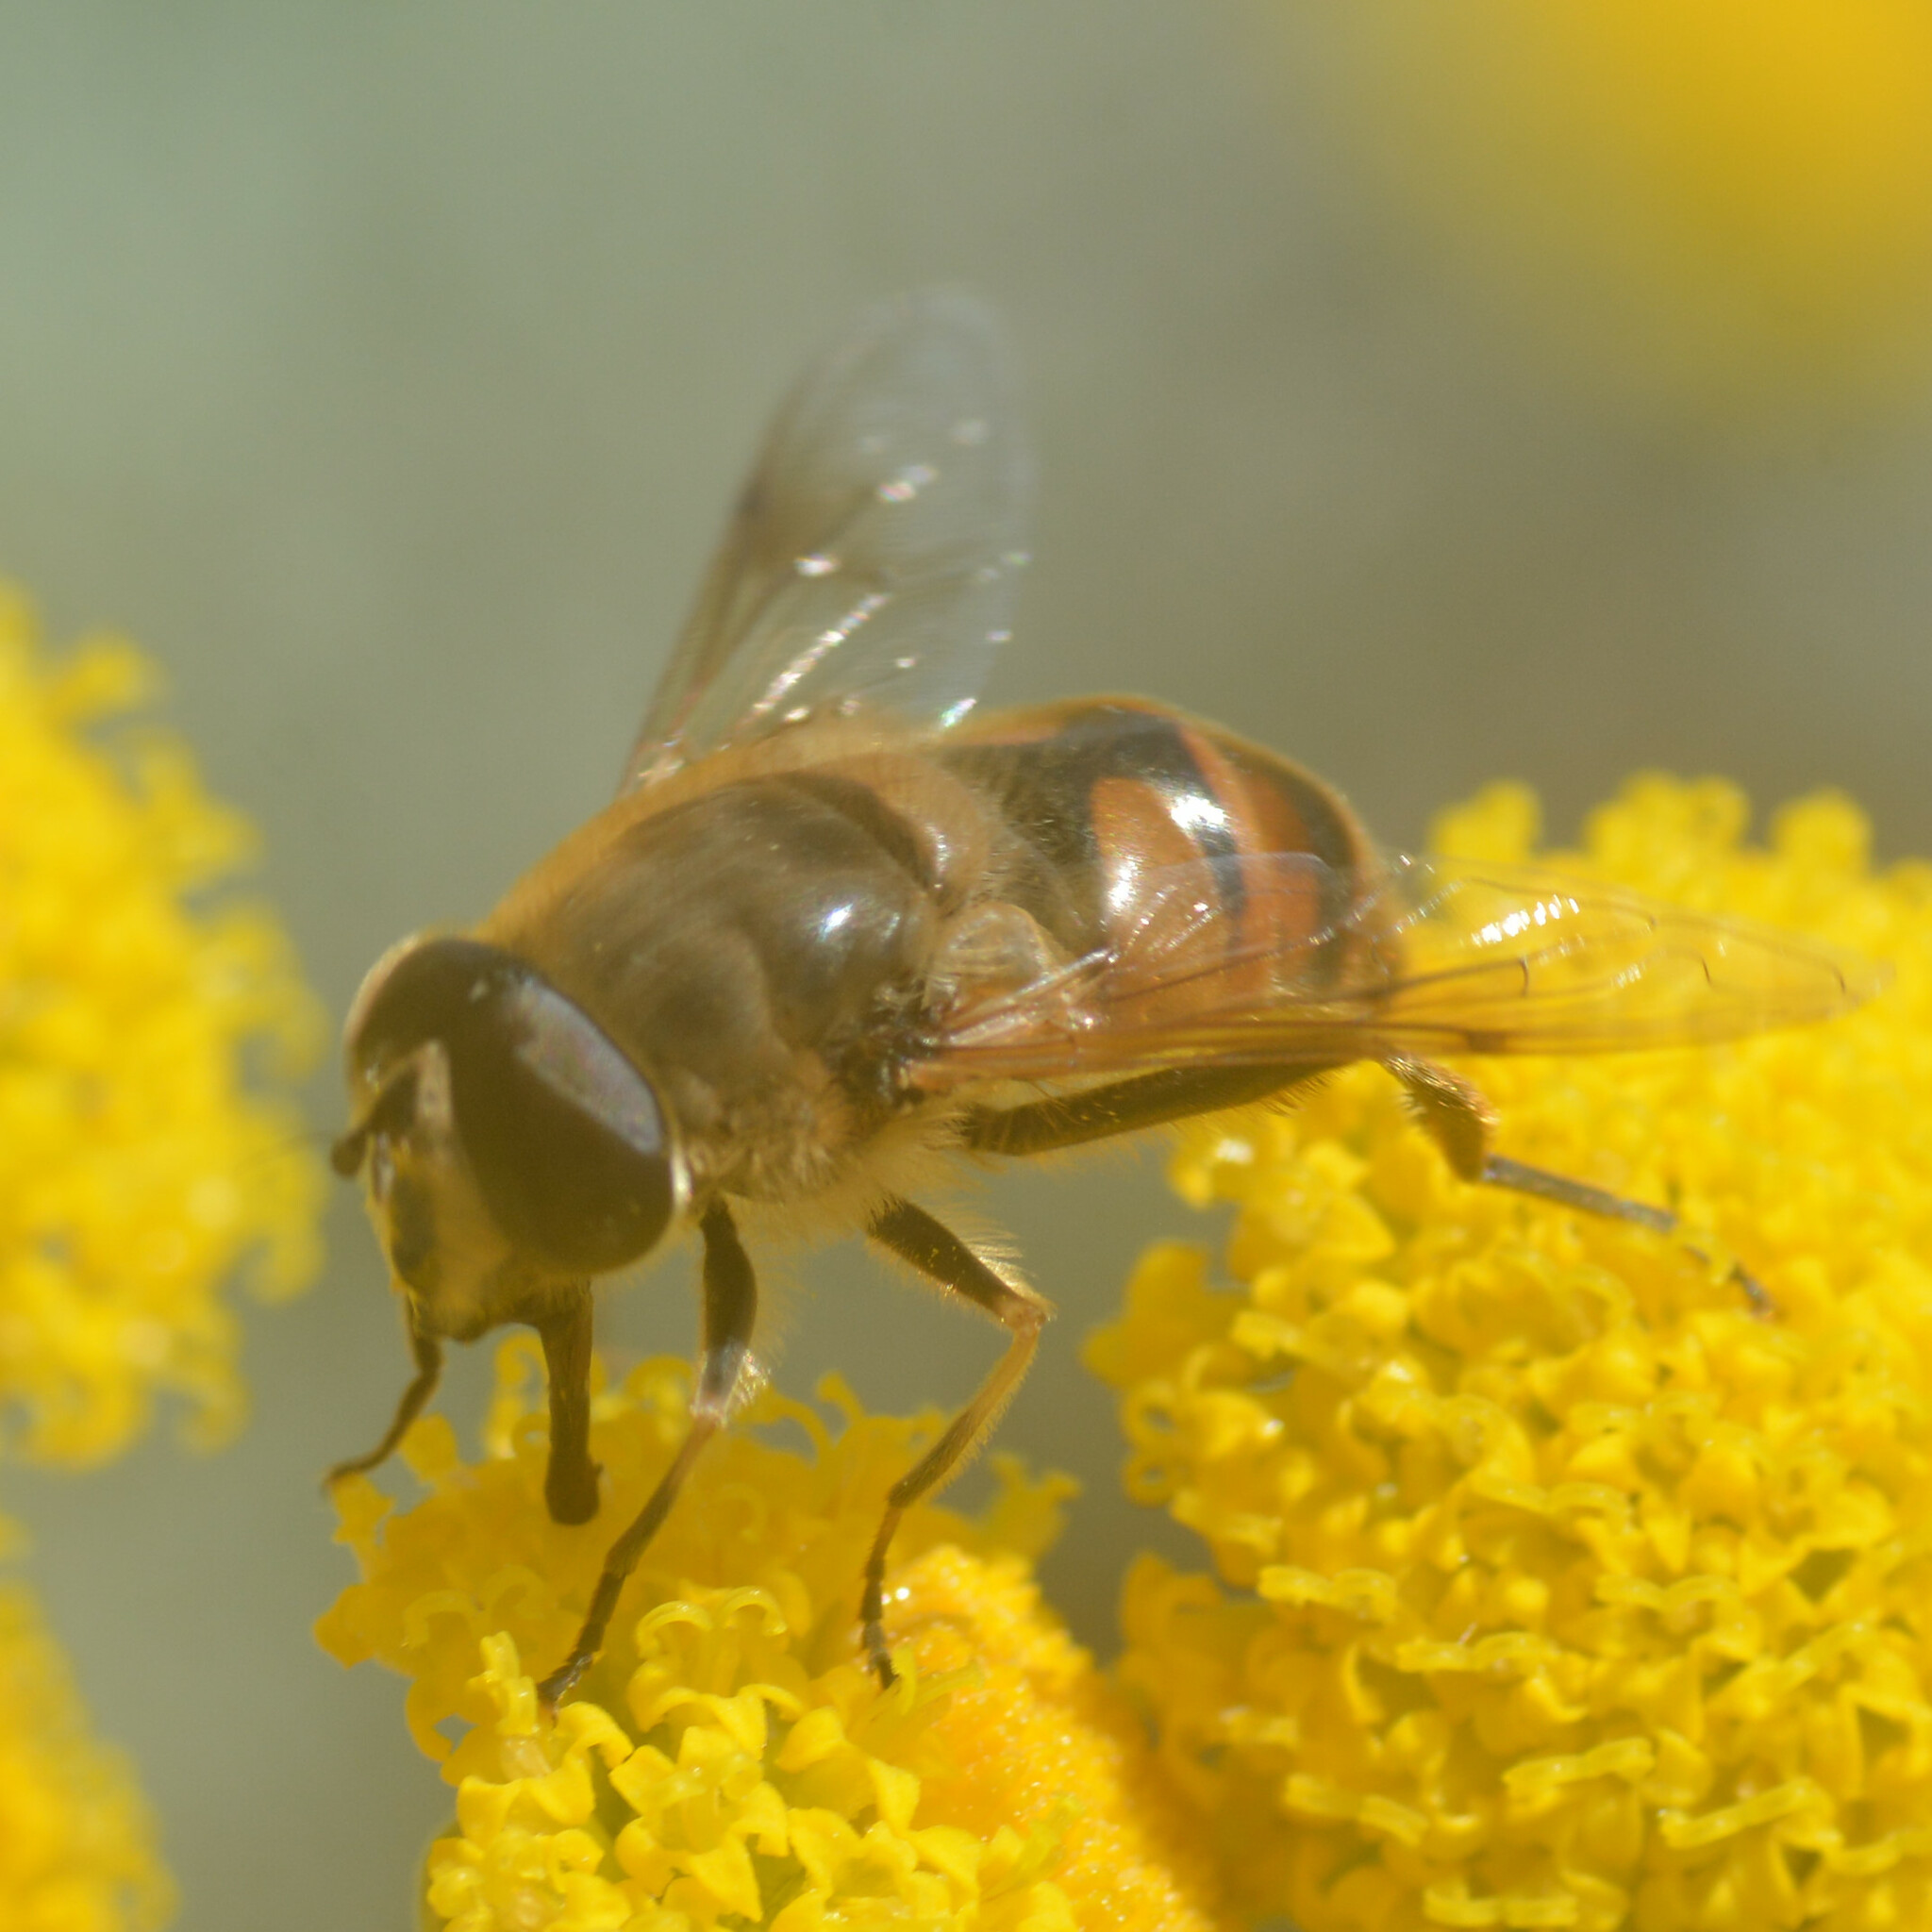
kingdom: Animalia
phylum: Arthropoda
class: Insecta
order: Diptera
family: Syrphidae
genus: Eristalis
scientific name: Eristalis tenax
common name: Drone fly
